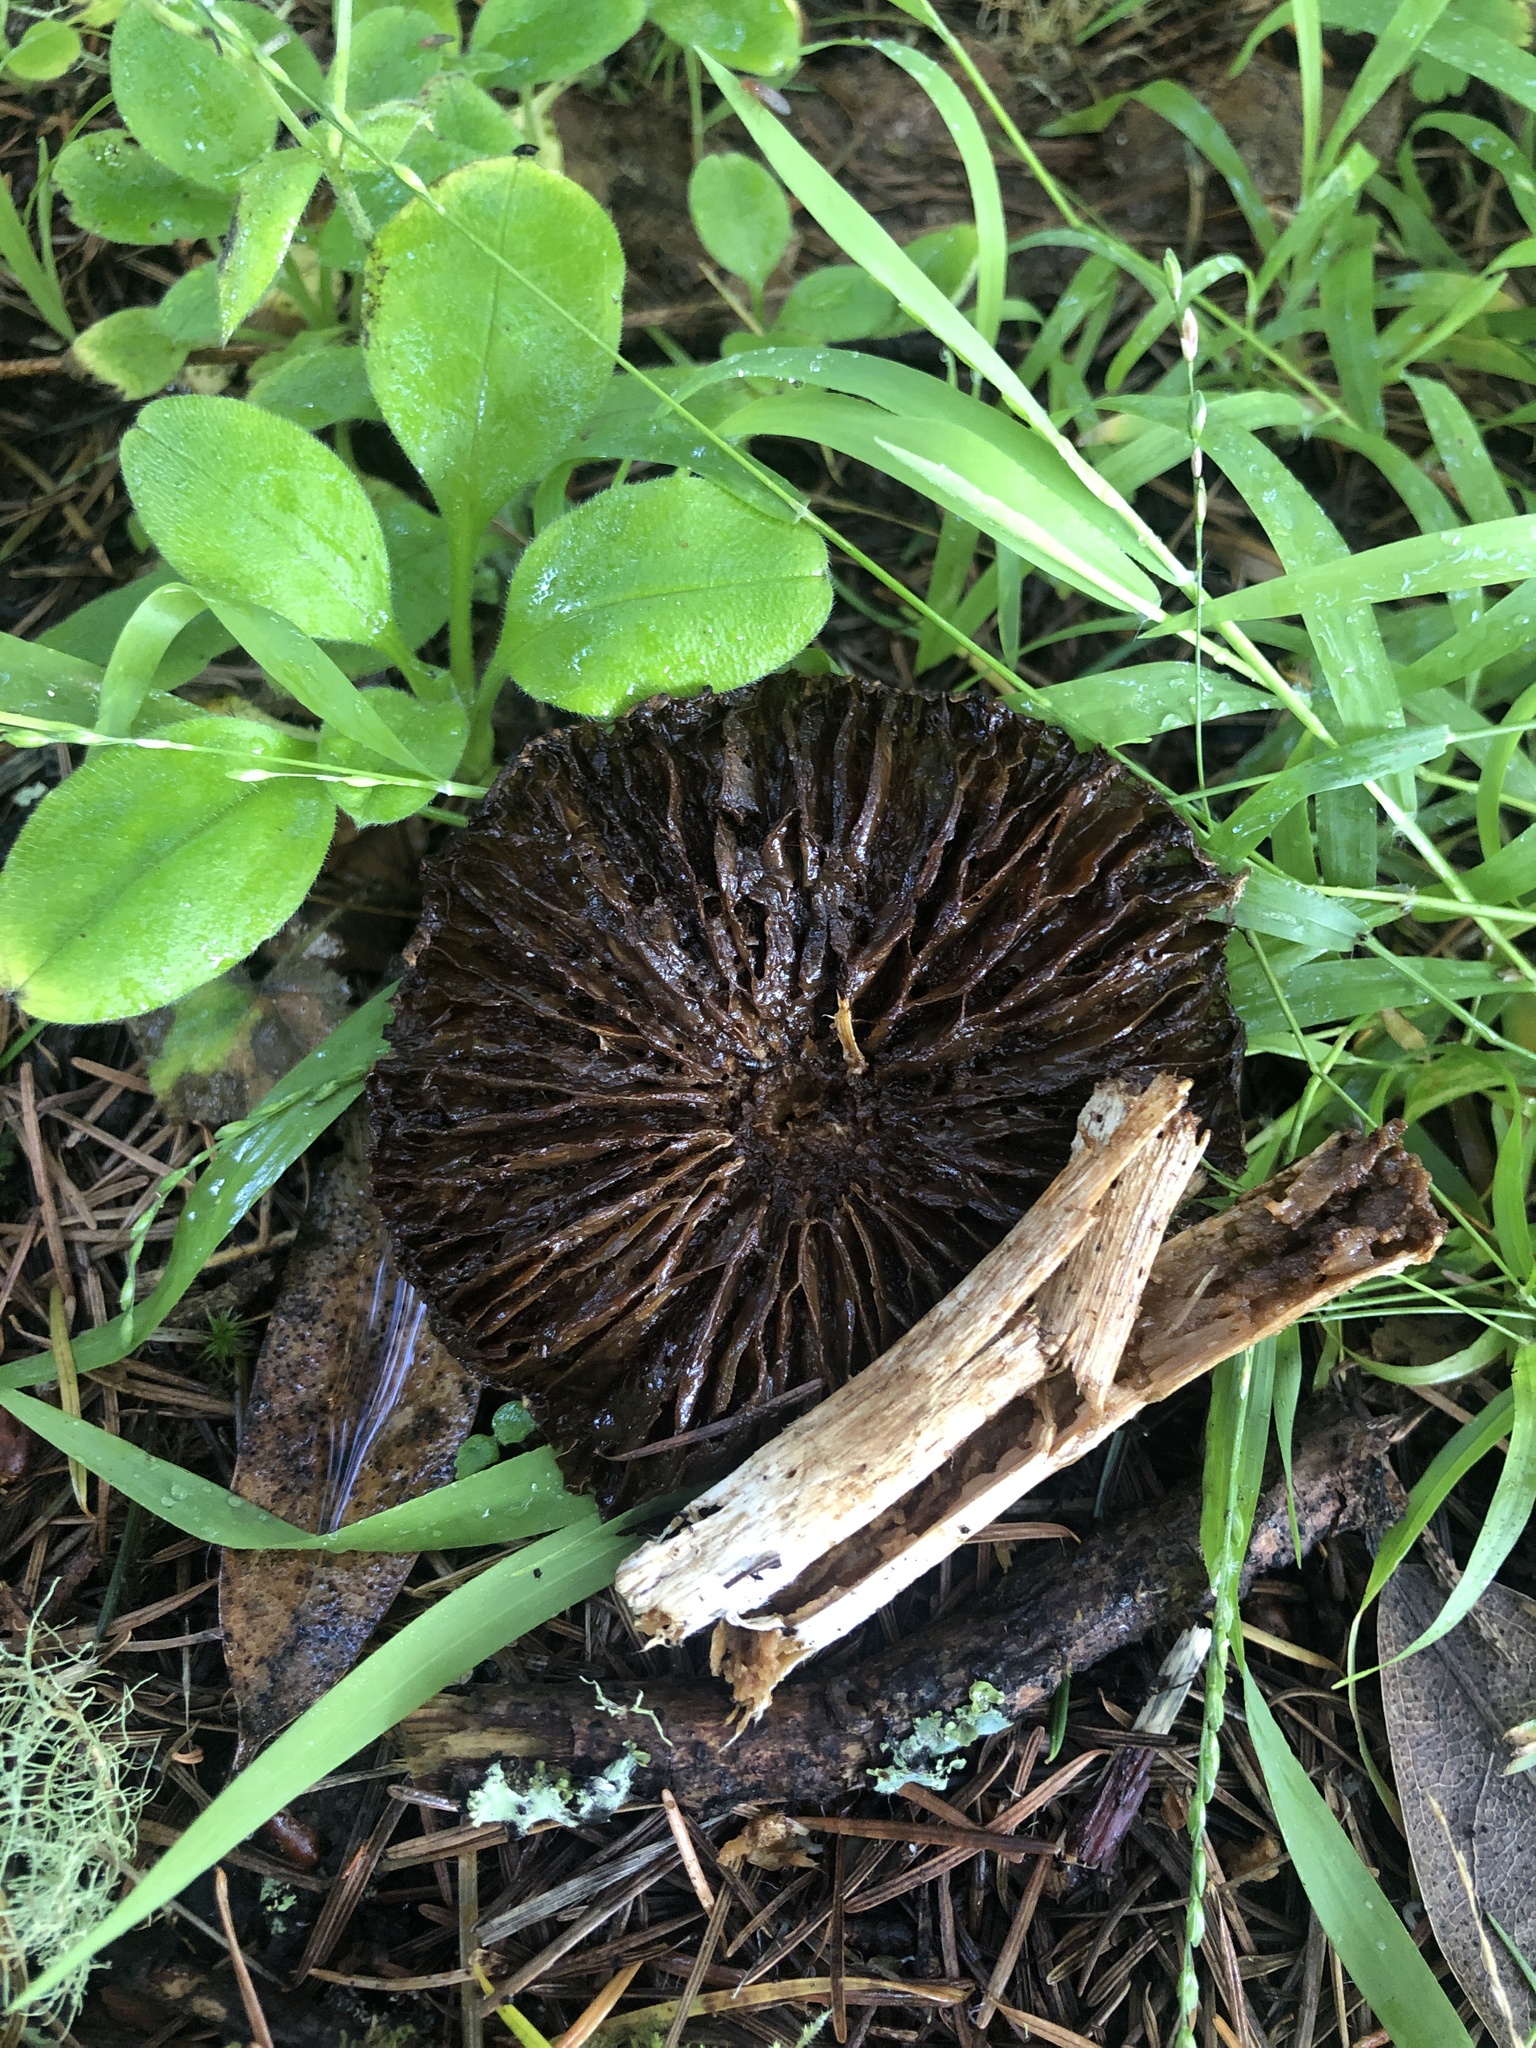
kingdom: Fungi
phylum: Basidiomycota
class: Agaricomycetes
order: Agaricales
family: Inocybaceae
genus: Pseudosperma
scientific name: Pseudosperma sororium
